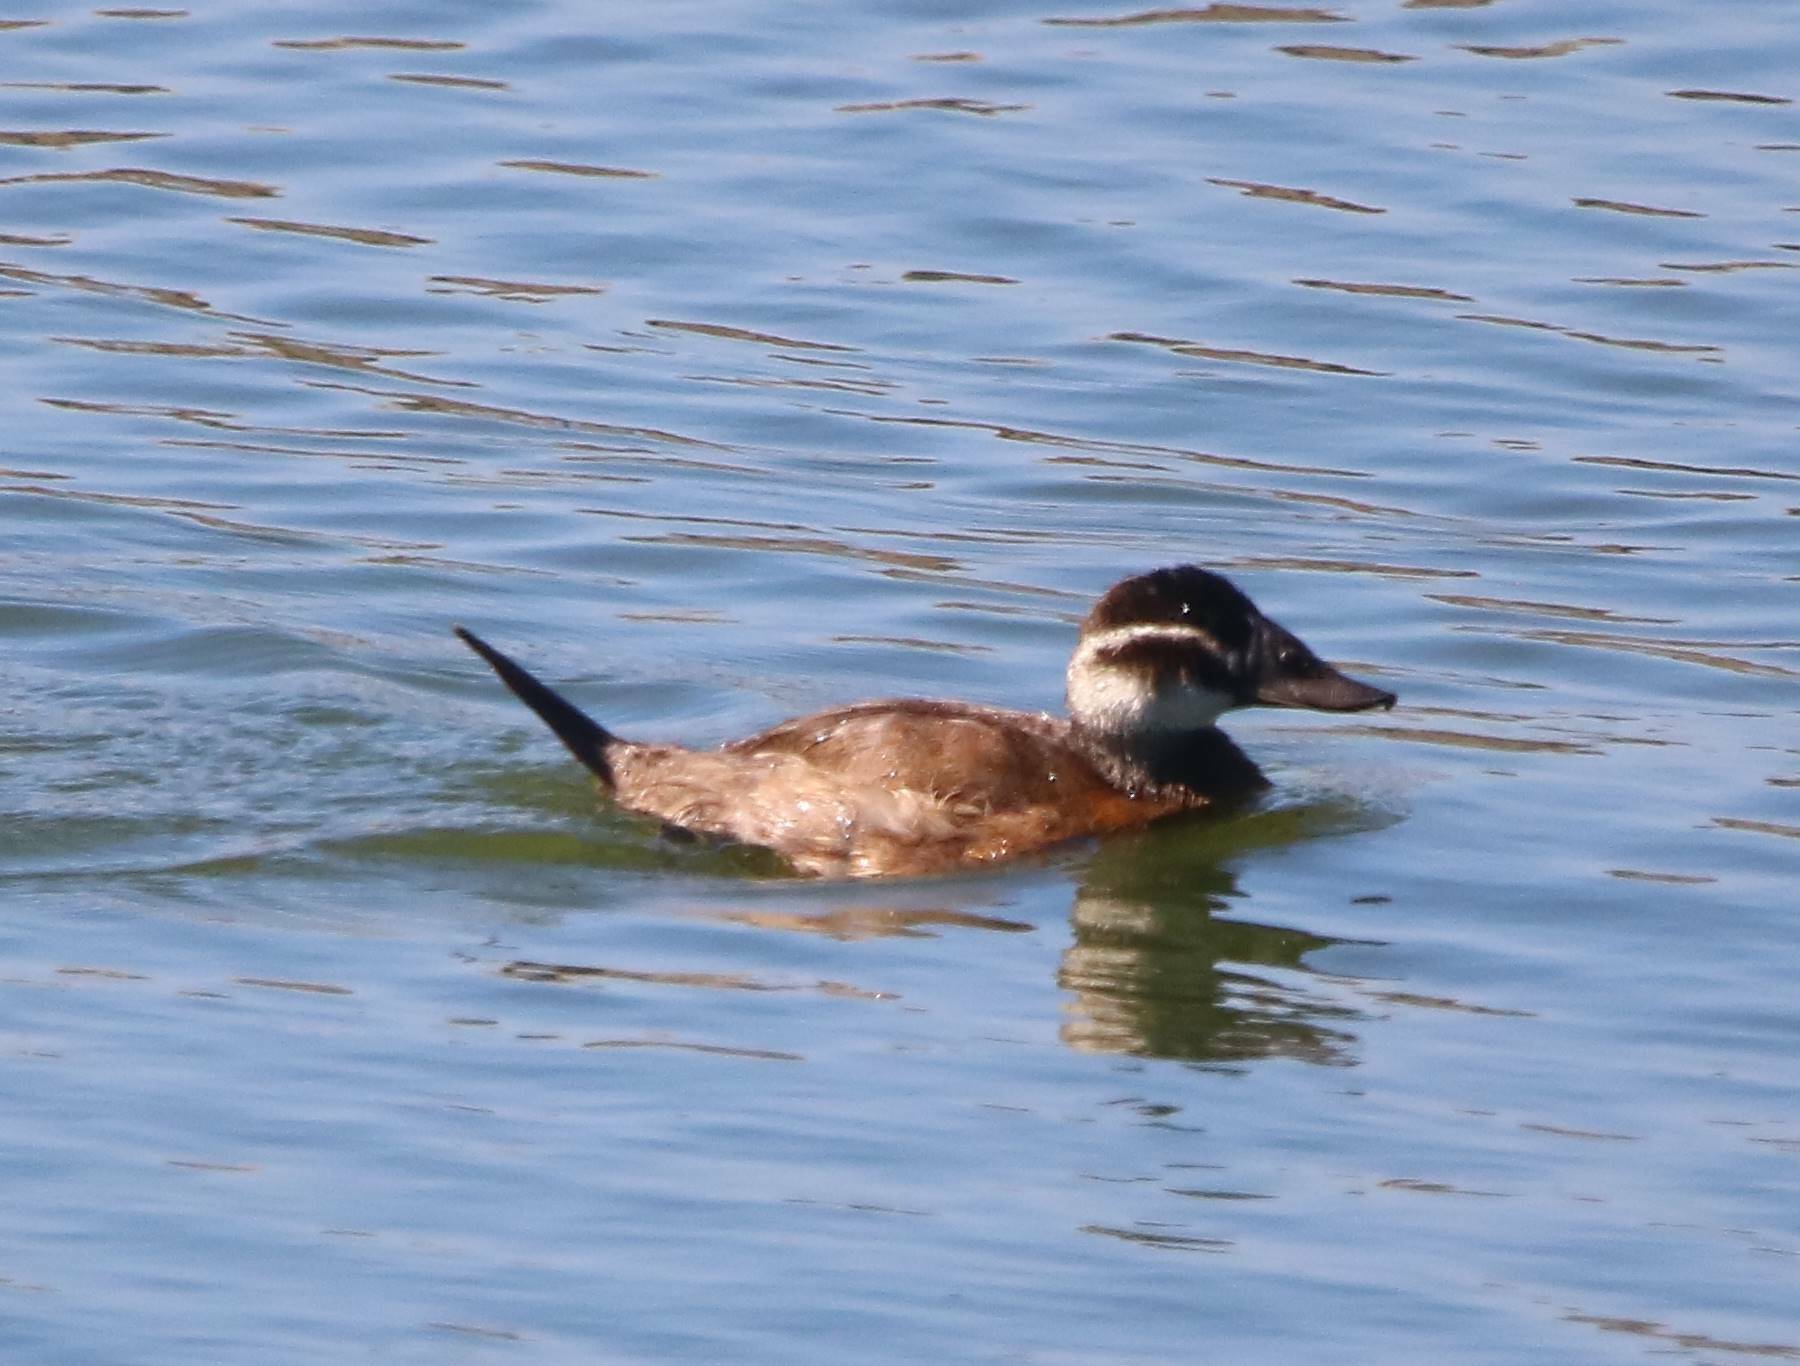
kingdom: Animalia
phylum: Chordata
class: Aves
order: Anseriformes
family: Anatidae
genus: Oxyura
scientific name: Oxyura leucocephala
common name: White-headed duck
